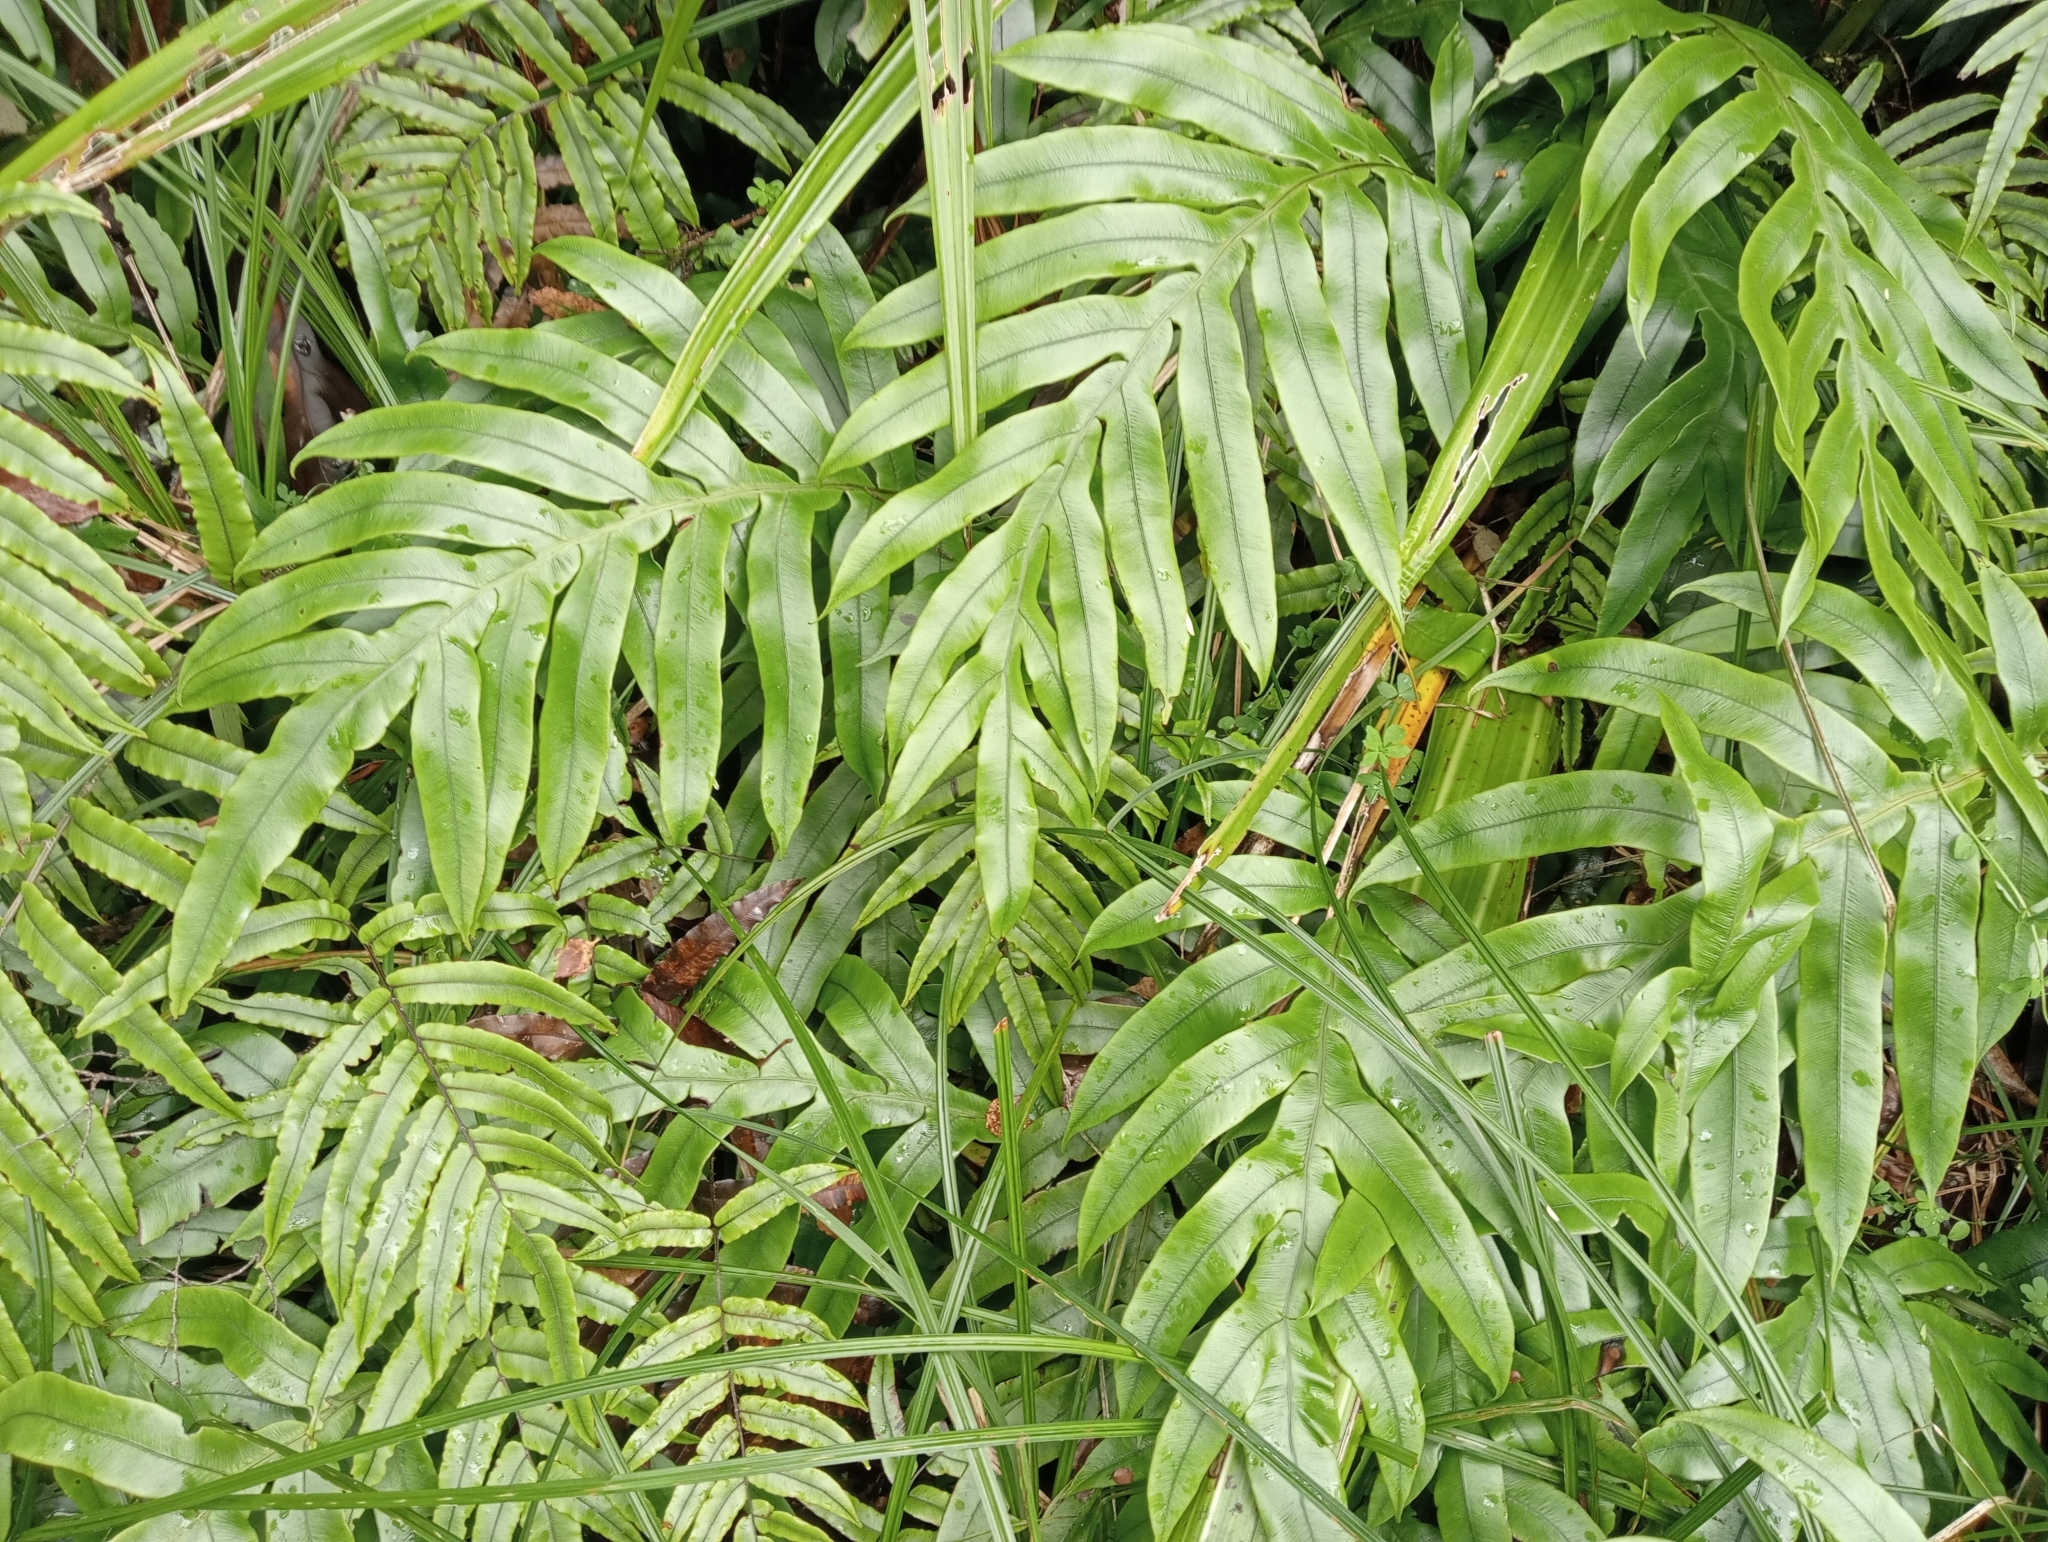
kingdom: Plantae
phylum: Tracheophyta
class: Polypodiopsida
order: Polypodiales
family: Blechnaceae
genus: Austroblechnum
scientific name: Austroblechnum colensoi
